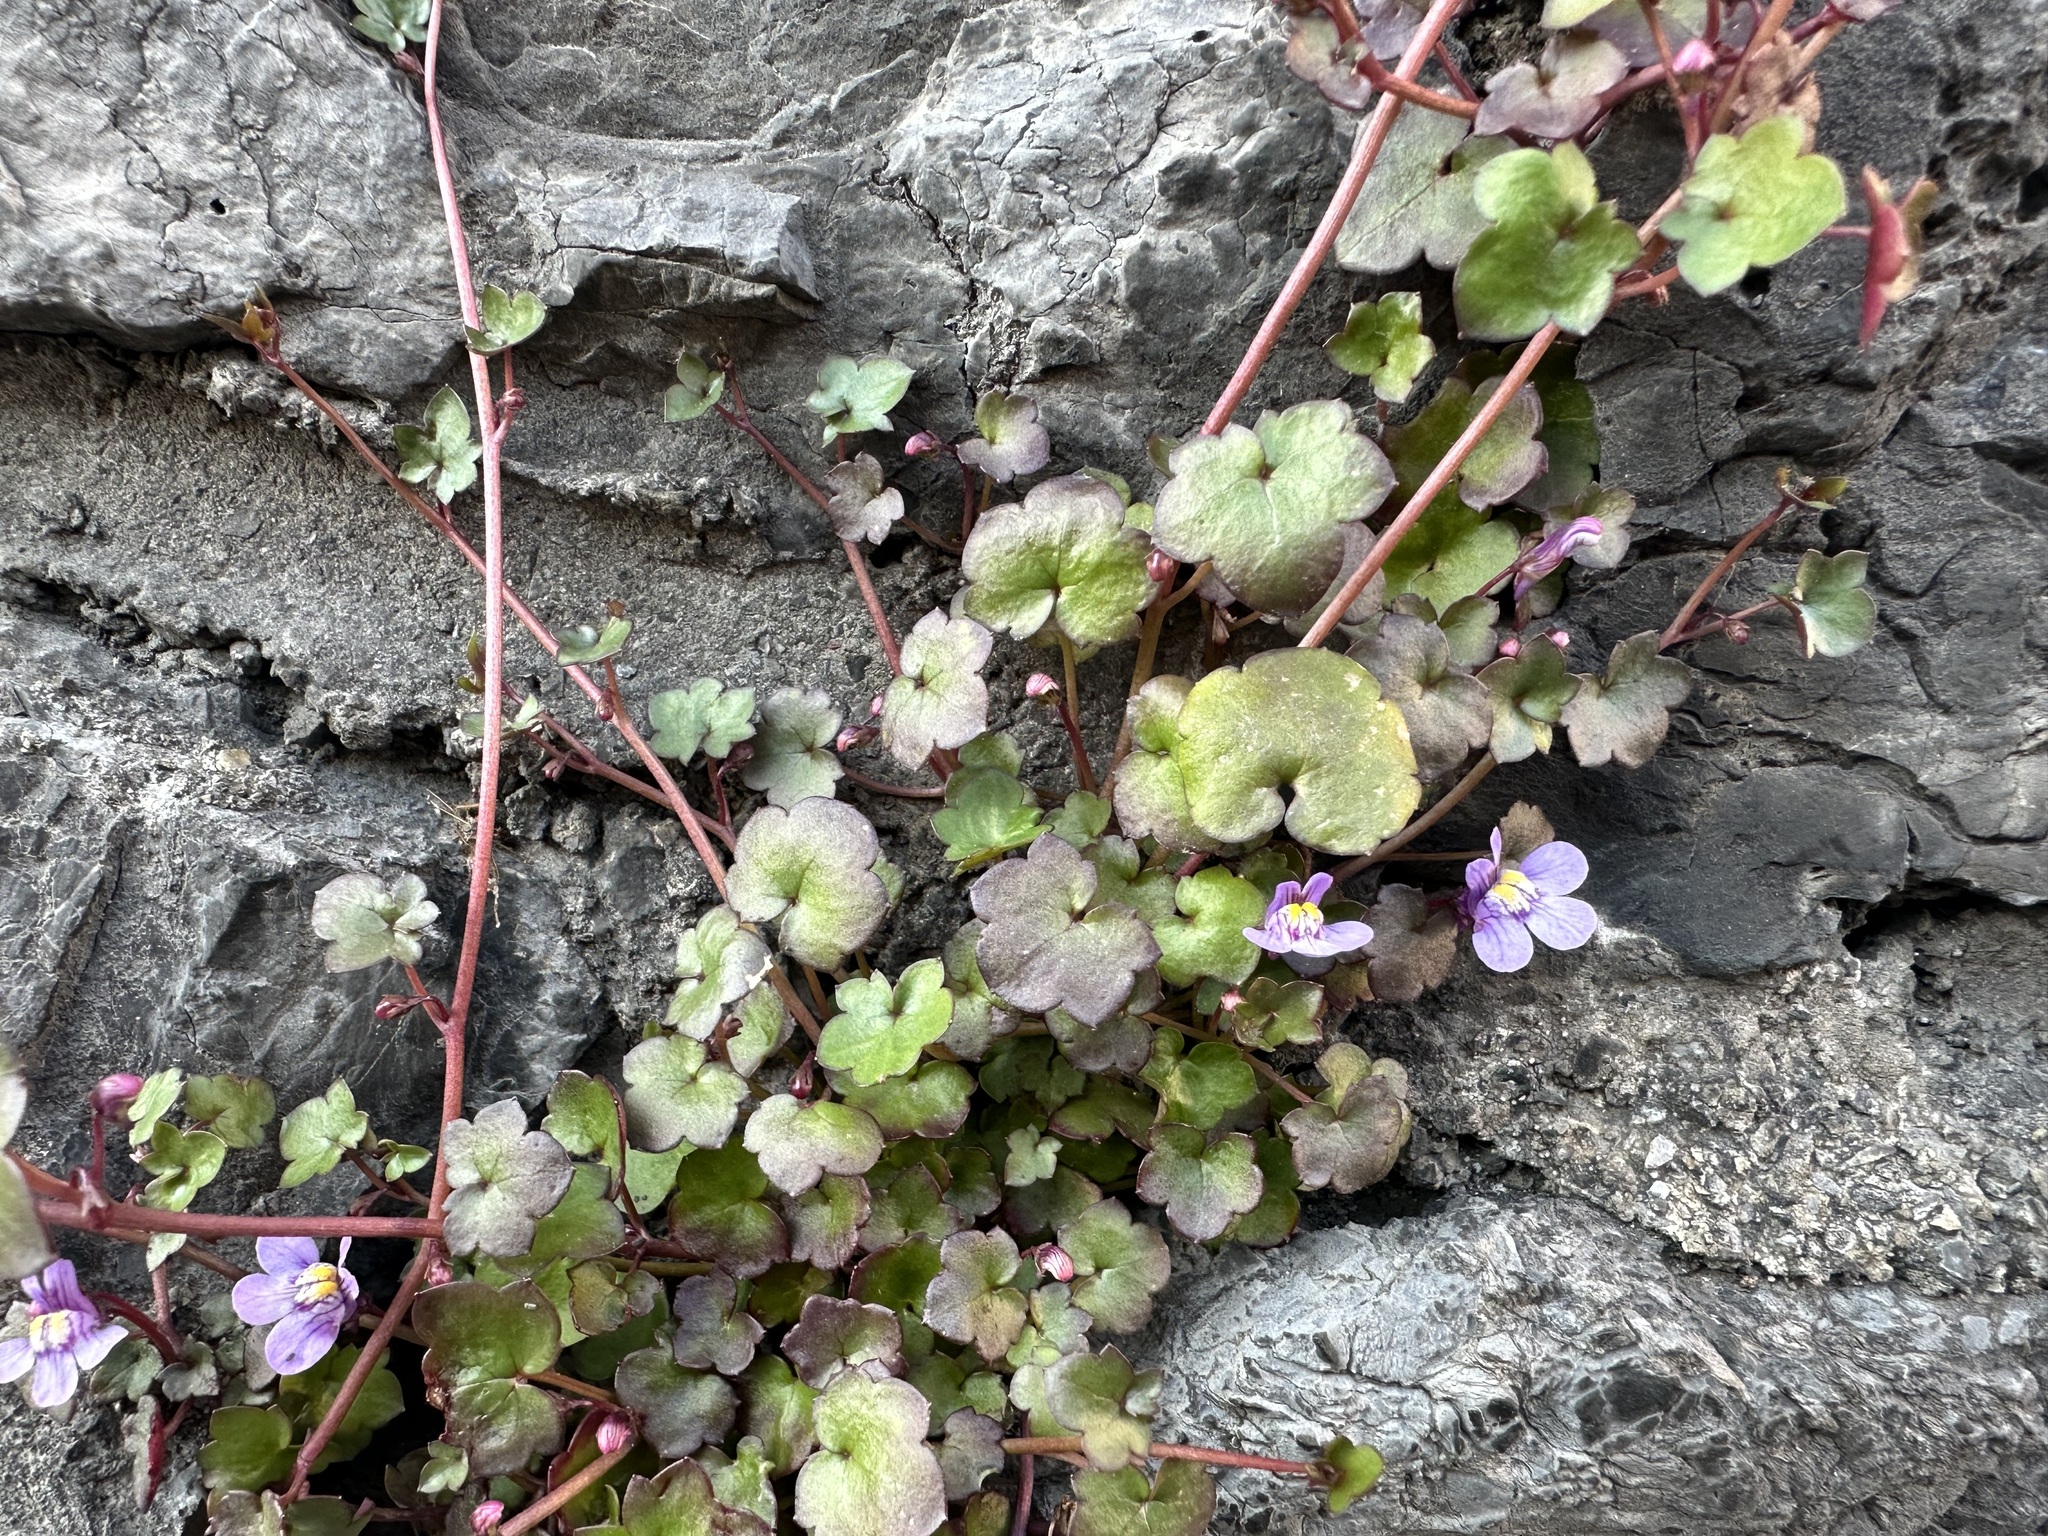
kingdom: Plantae
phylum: Tracheophyta
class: Magnoliopsida
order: Lamiales
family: Plantaginaceae
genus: Cymbalaria
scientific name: Cymbalaria muralis
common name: Ivy-leaved toadflax
